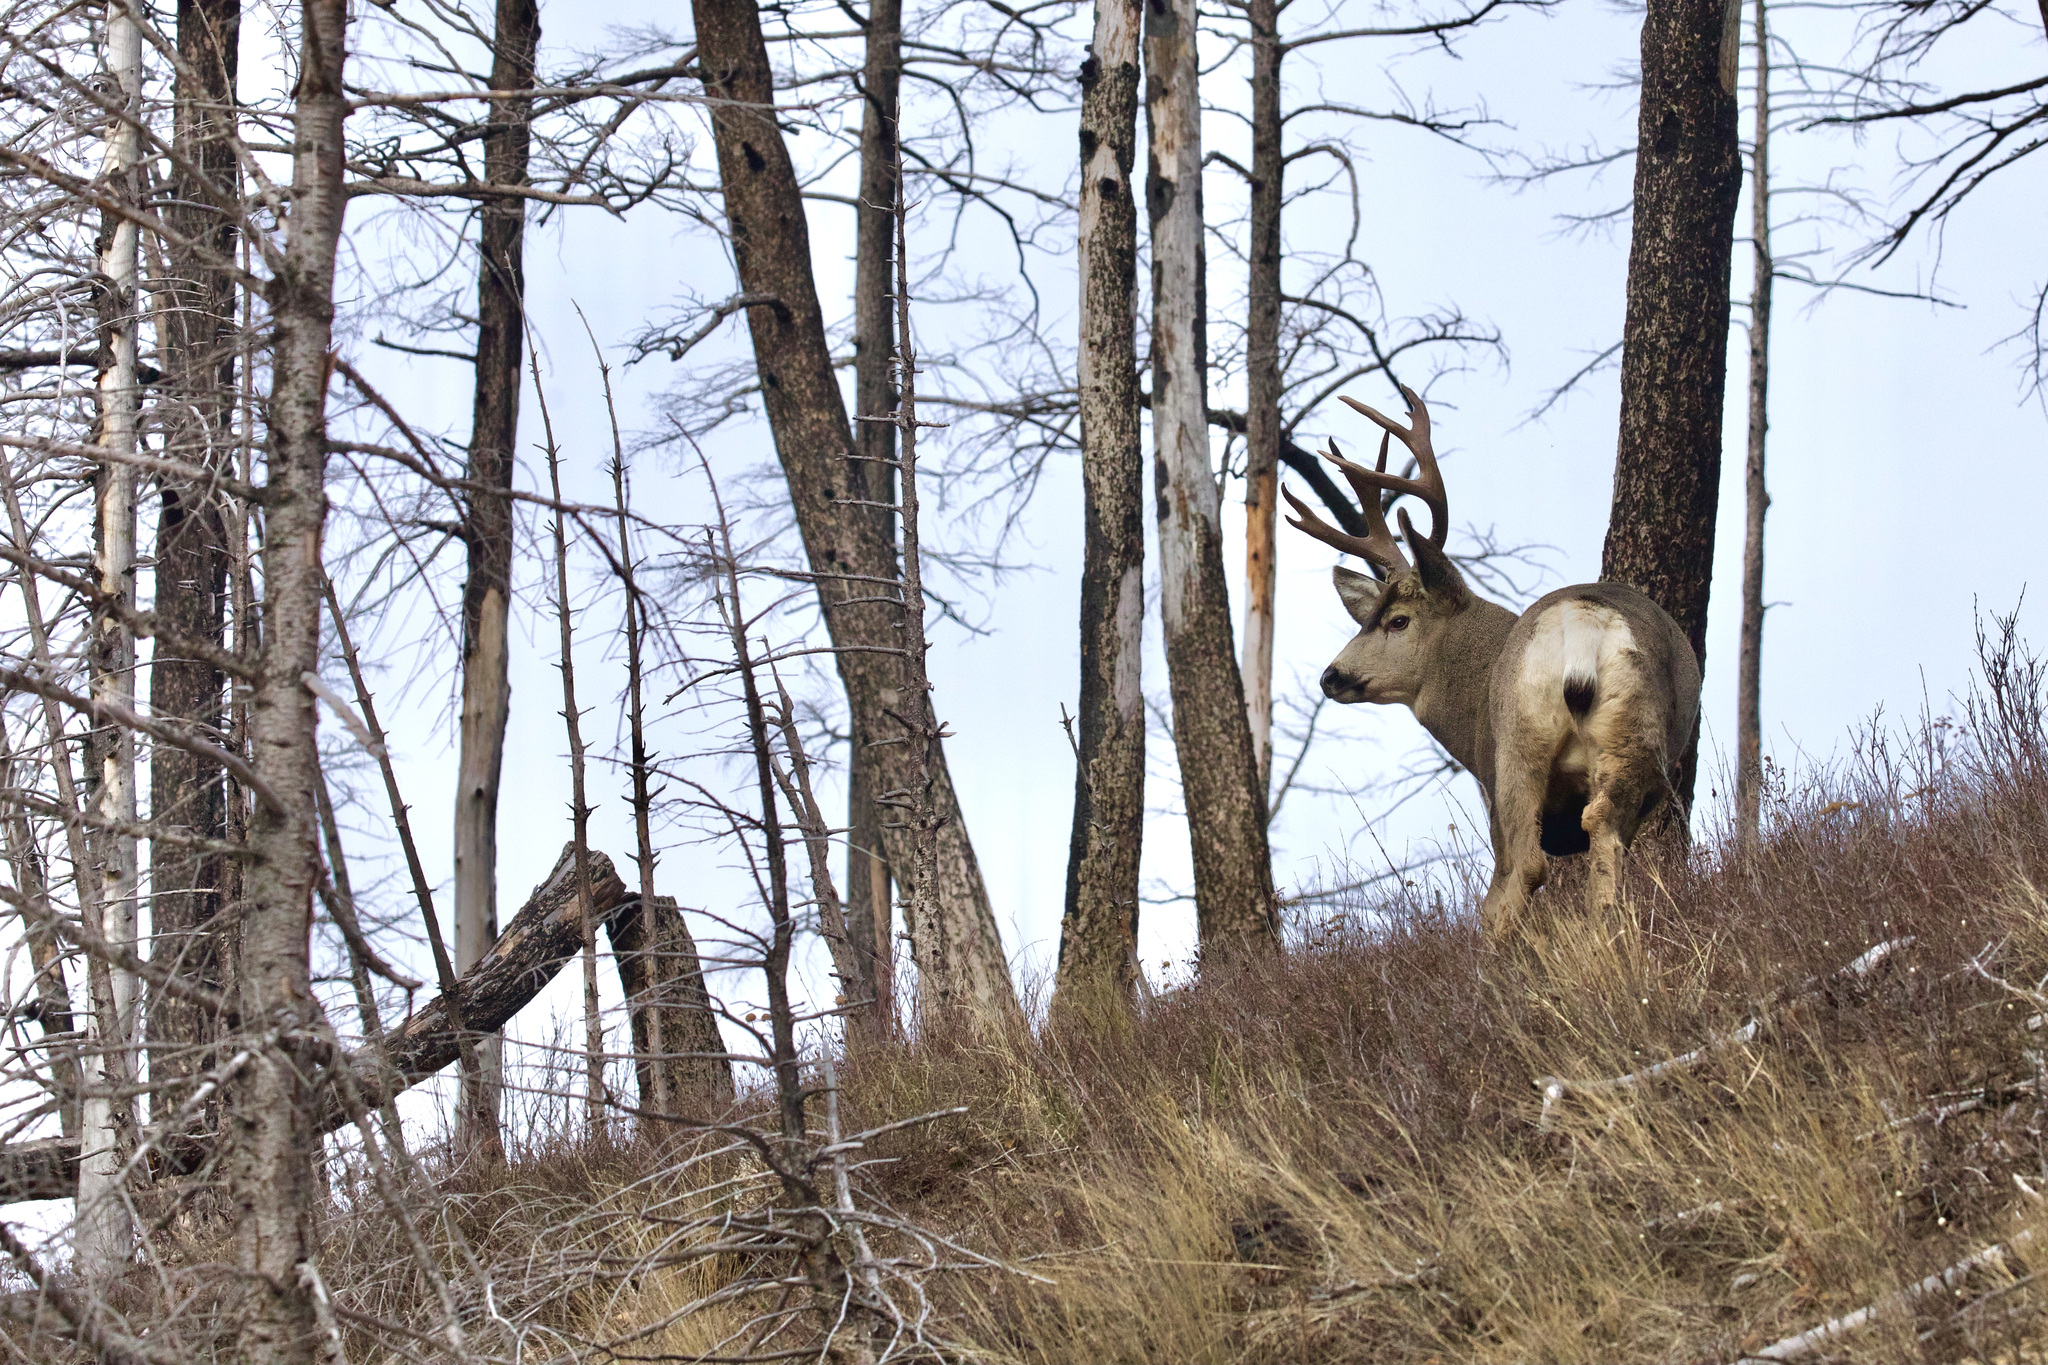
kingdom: Animalia
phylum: Chordata
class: Mammalia
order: Artiodactyla
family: Cervidae
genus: Odocoileus
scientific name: Odocoileus hemionus
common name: Mule deer
